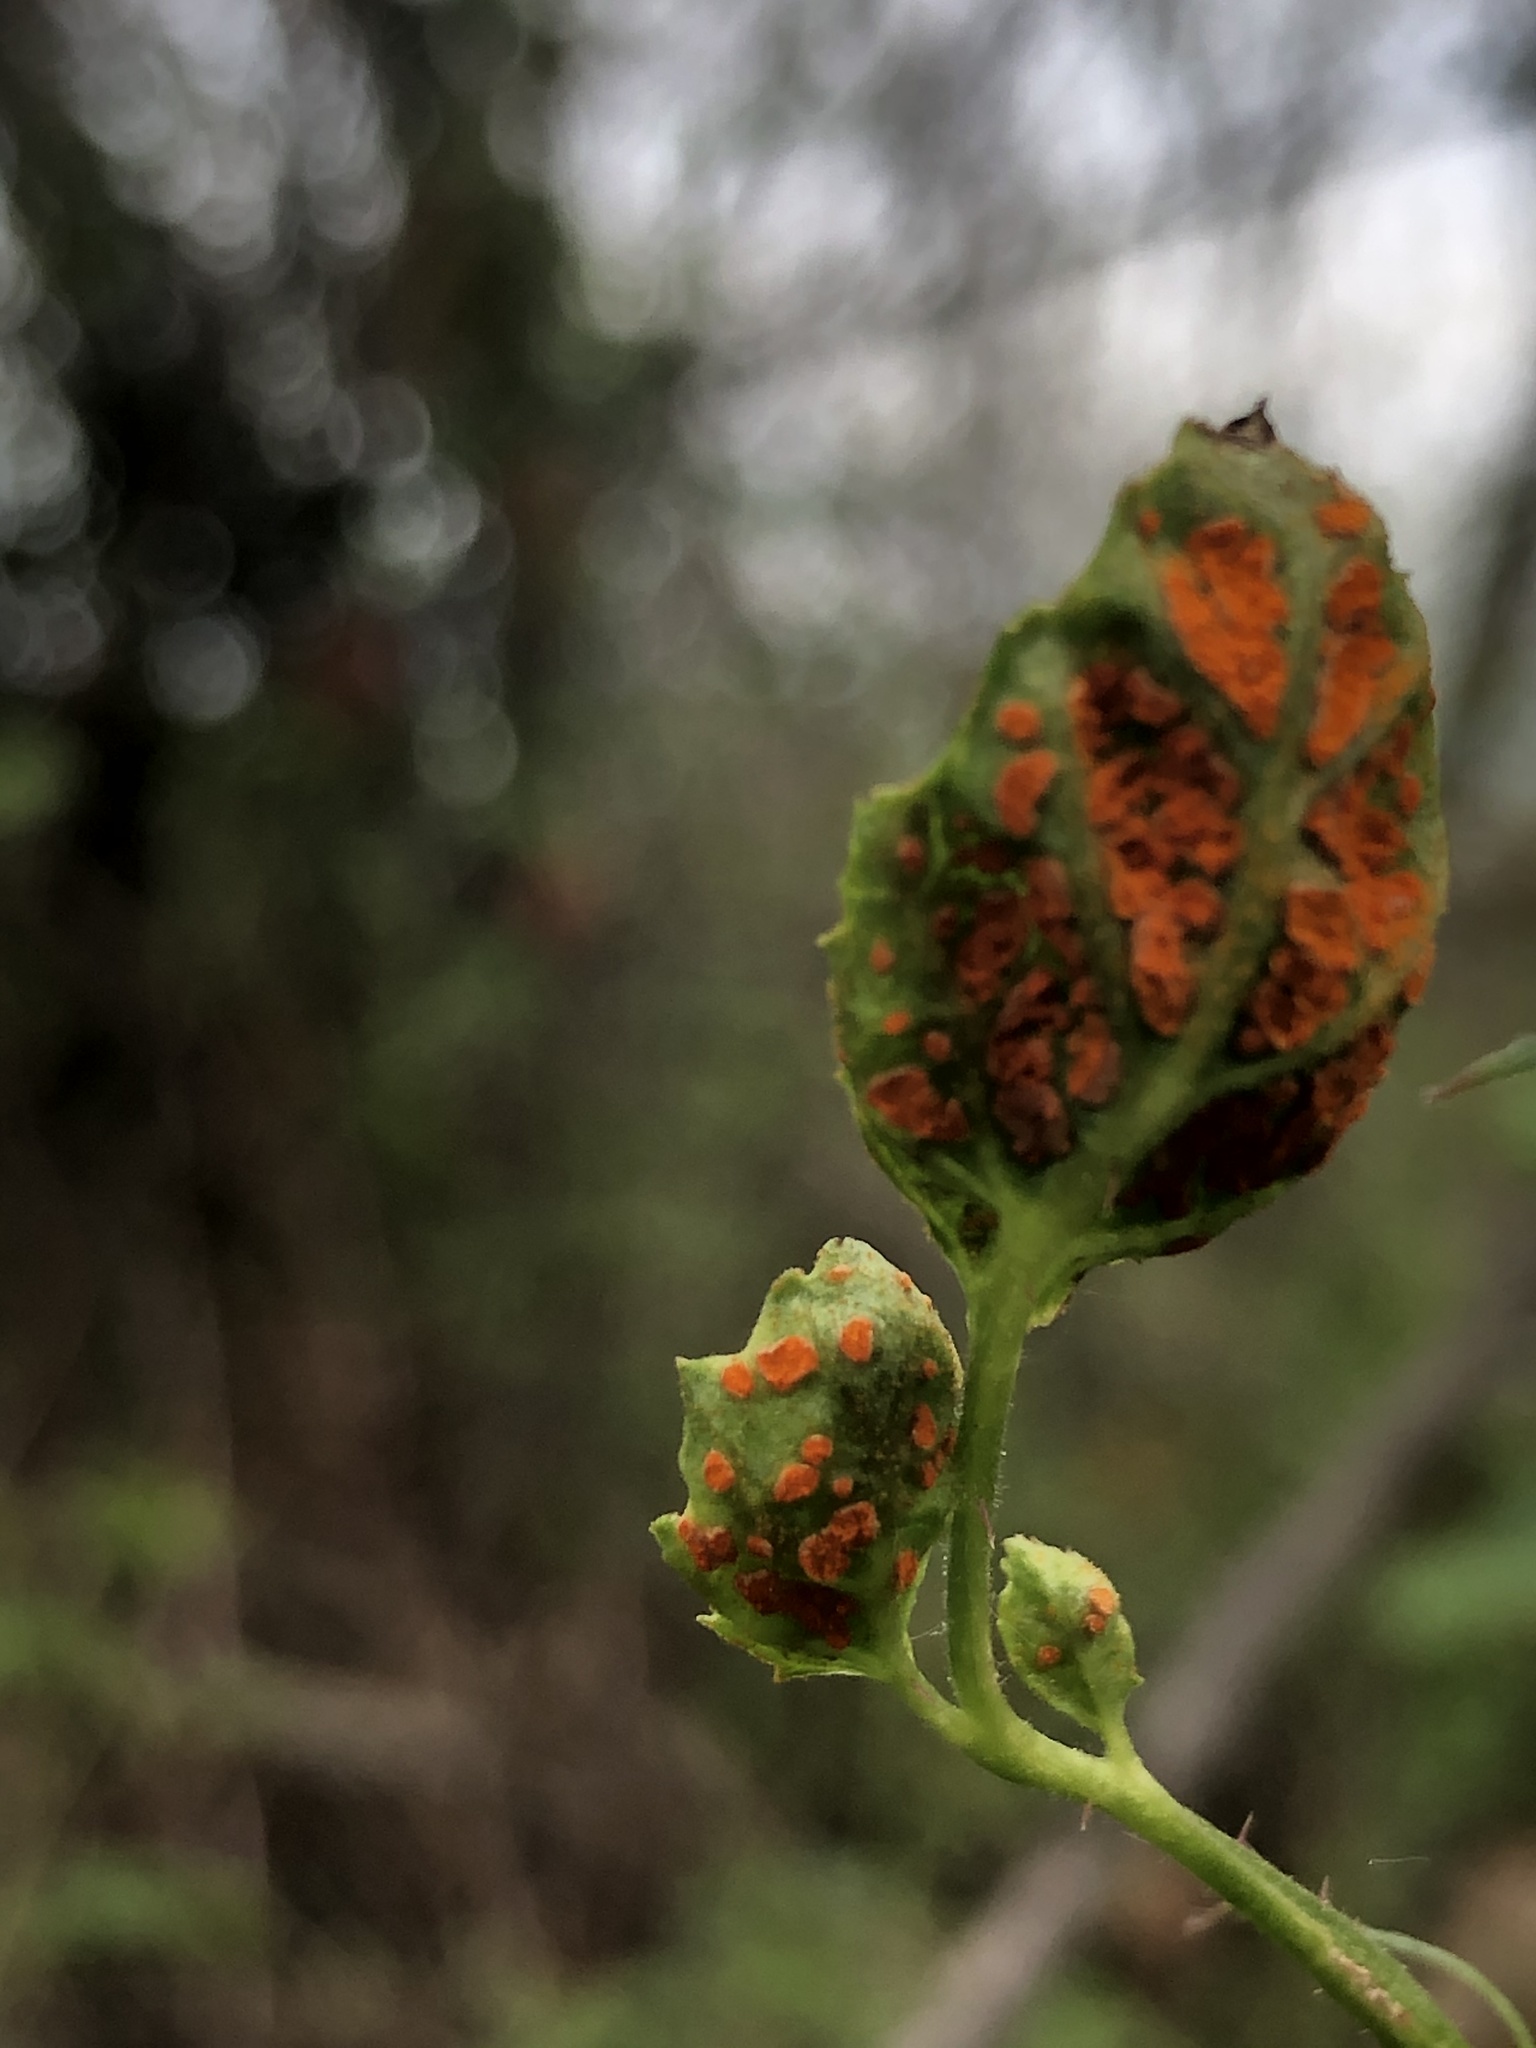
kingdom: Fungi
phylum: Basidiomycota
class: Pucciniomycetes
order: Pucciniales
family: Phragmidiaceae
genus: Arthuriomyces
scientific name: Arthuriomyces peckianus
